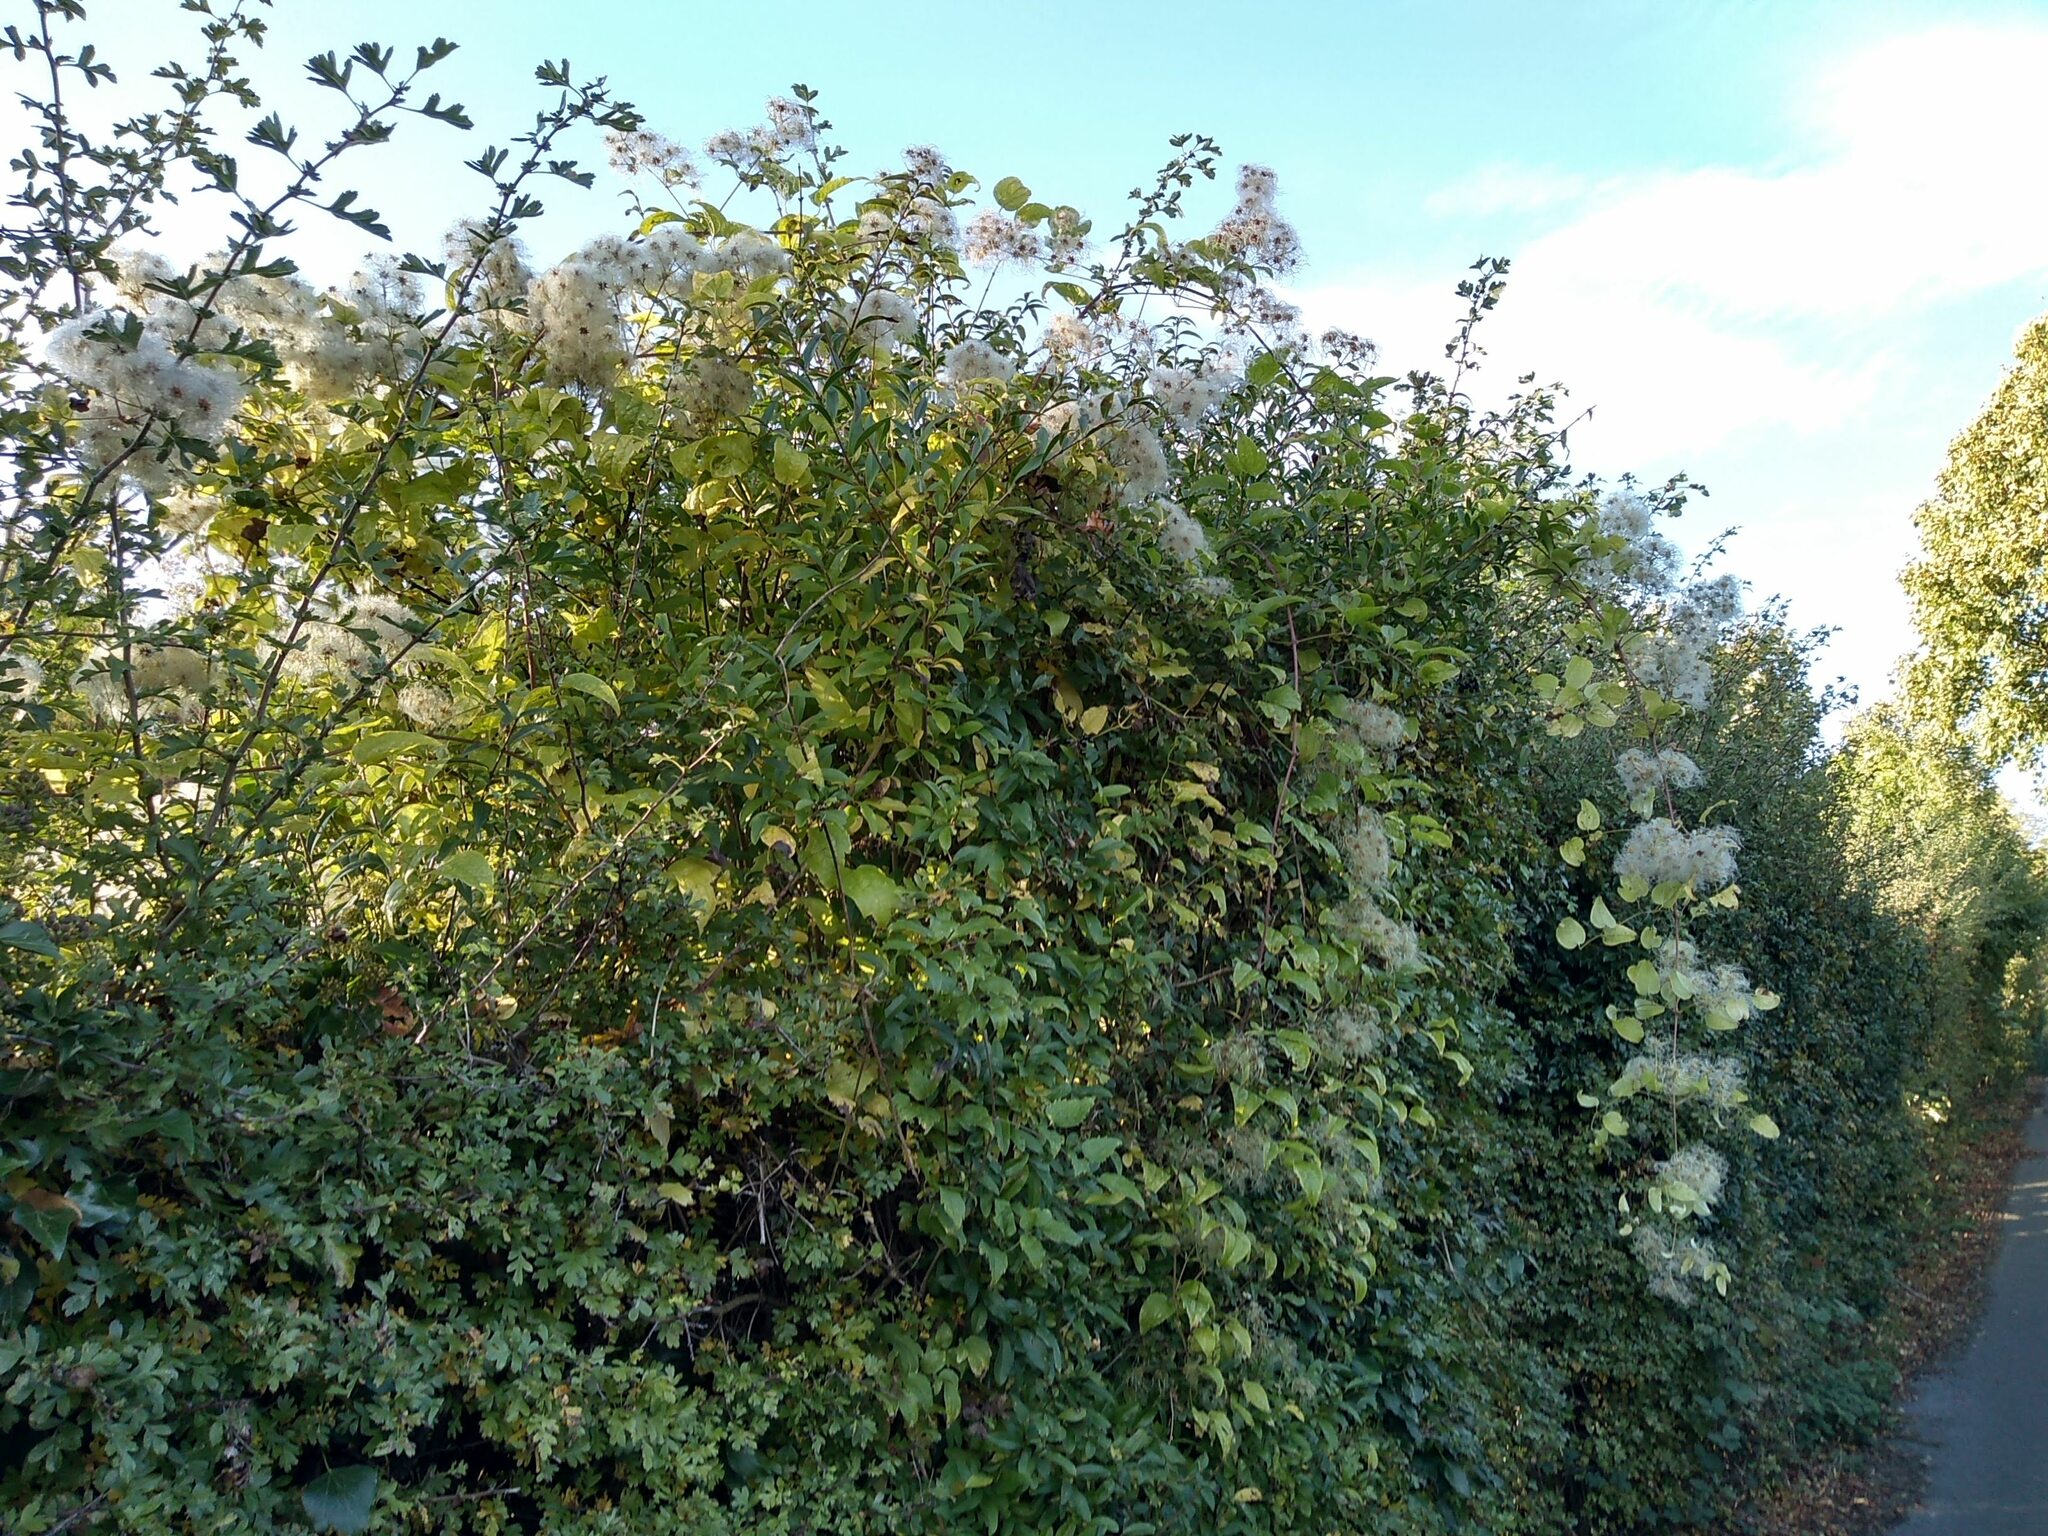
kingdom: Plantae
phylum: Tracheophyta
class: Magnoliopsida
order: Ranunculales
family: Ranunculaceae
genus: Clematis
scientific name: Clematis vitalba
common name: Evergreen clematis
